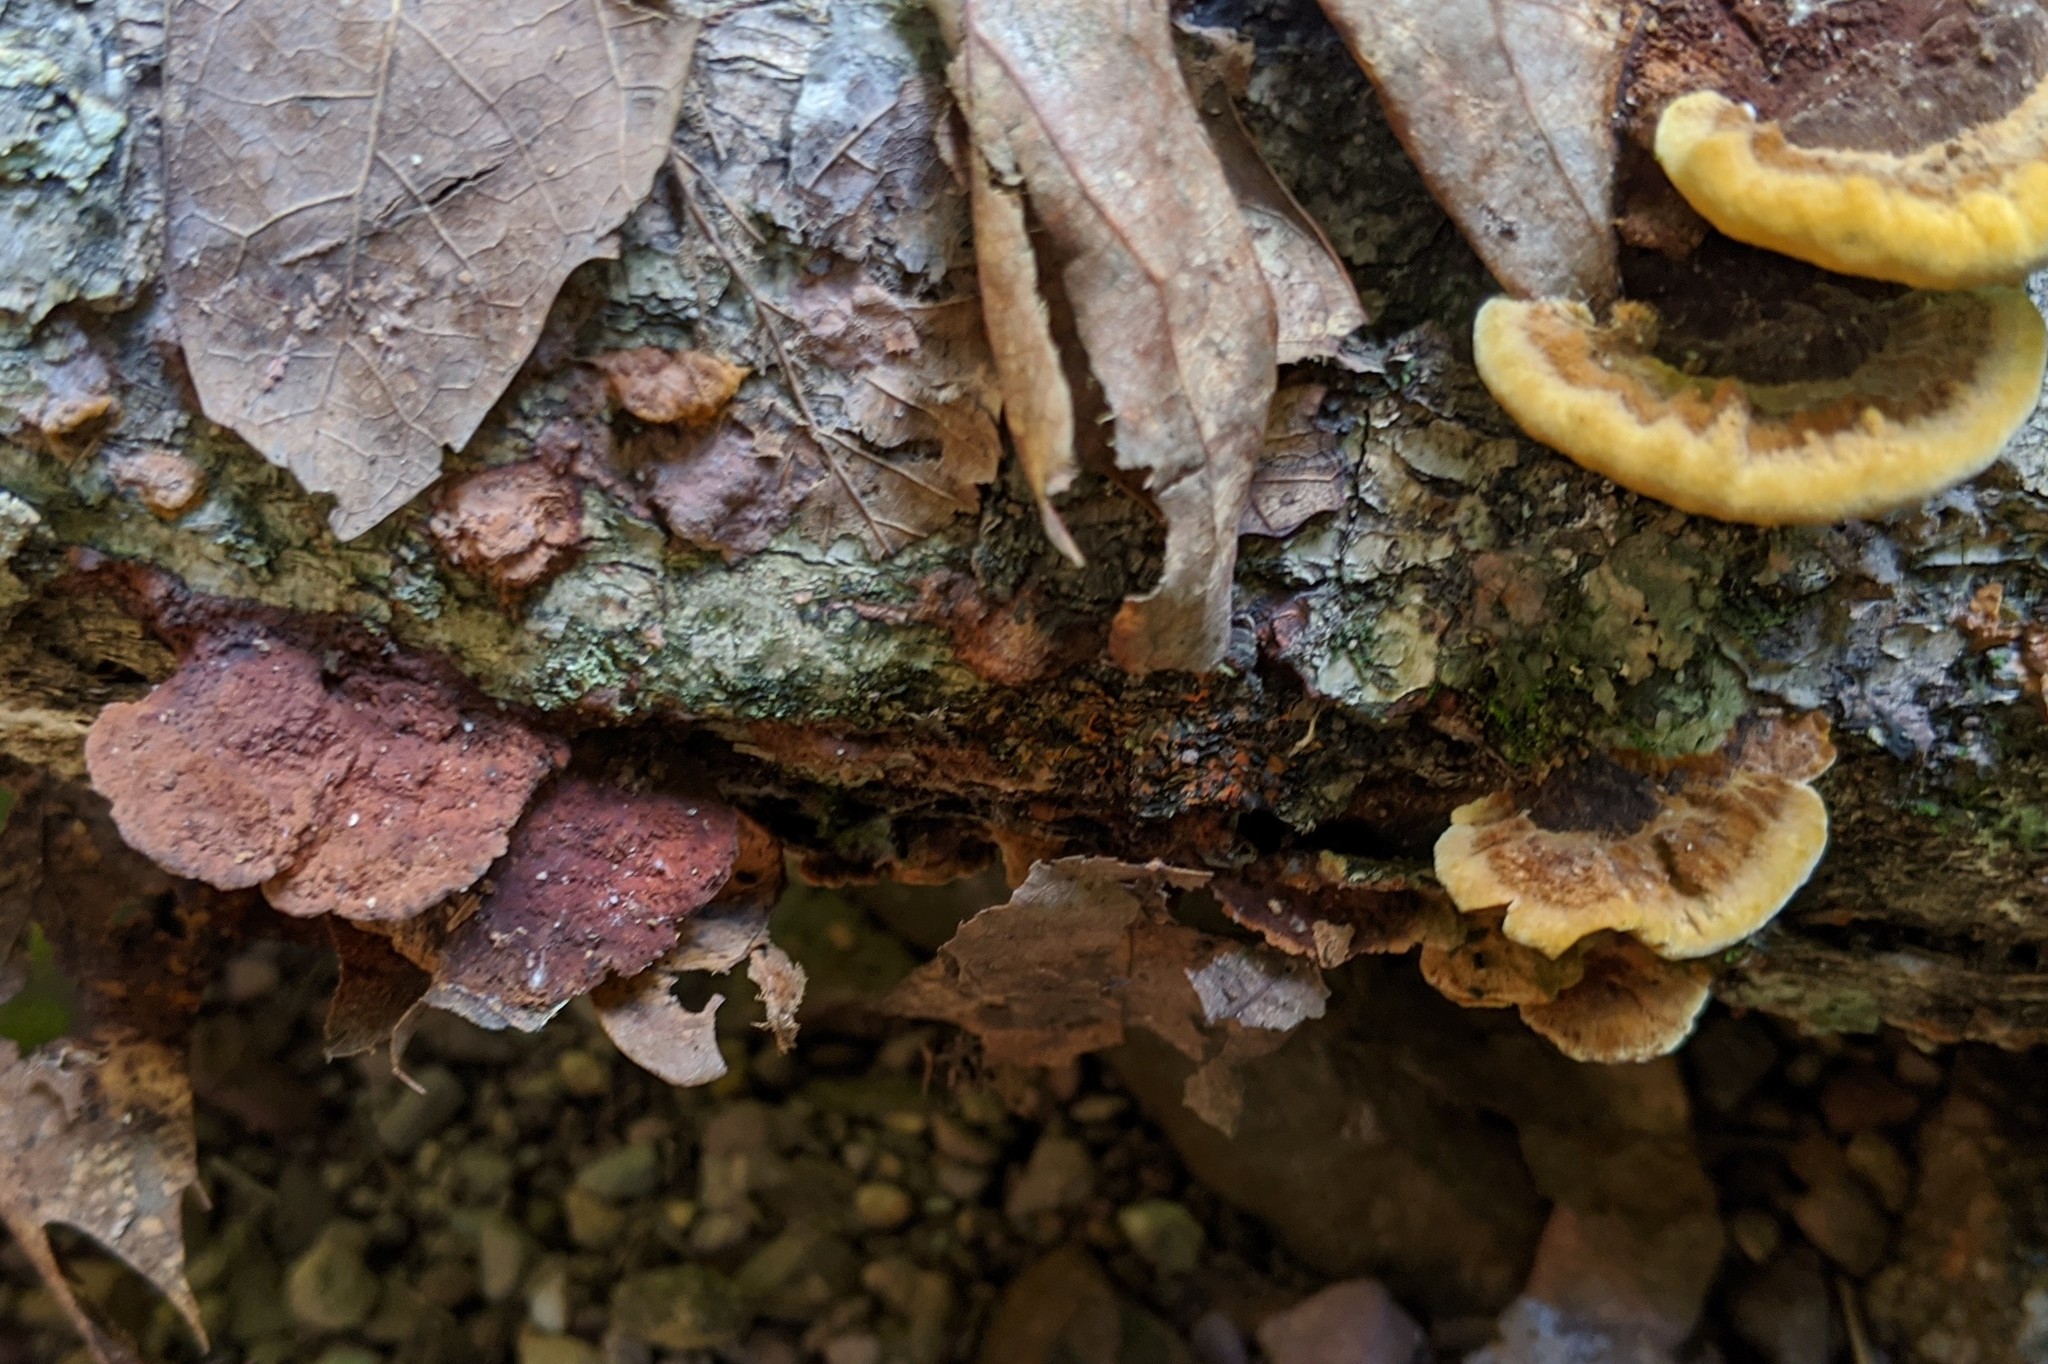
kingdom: Fungi
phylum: Basidiomycota
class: Agaricomycetes
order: Hymenochaetales
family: Hymenochaetaceae
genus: Phellinus
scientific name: Phellinus gilvus
